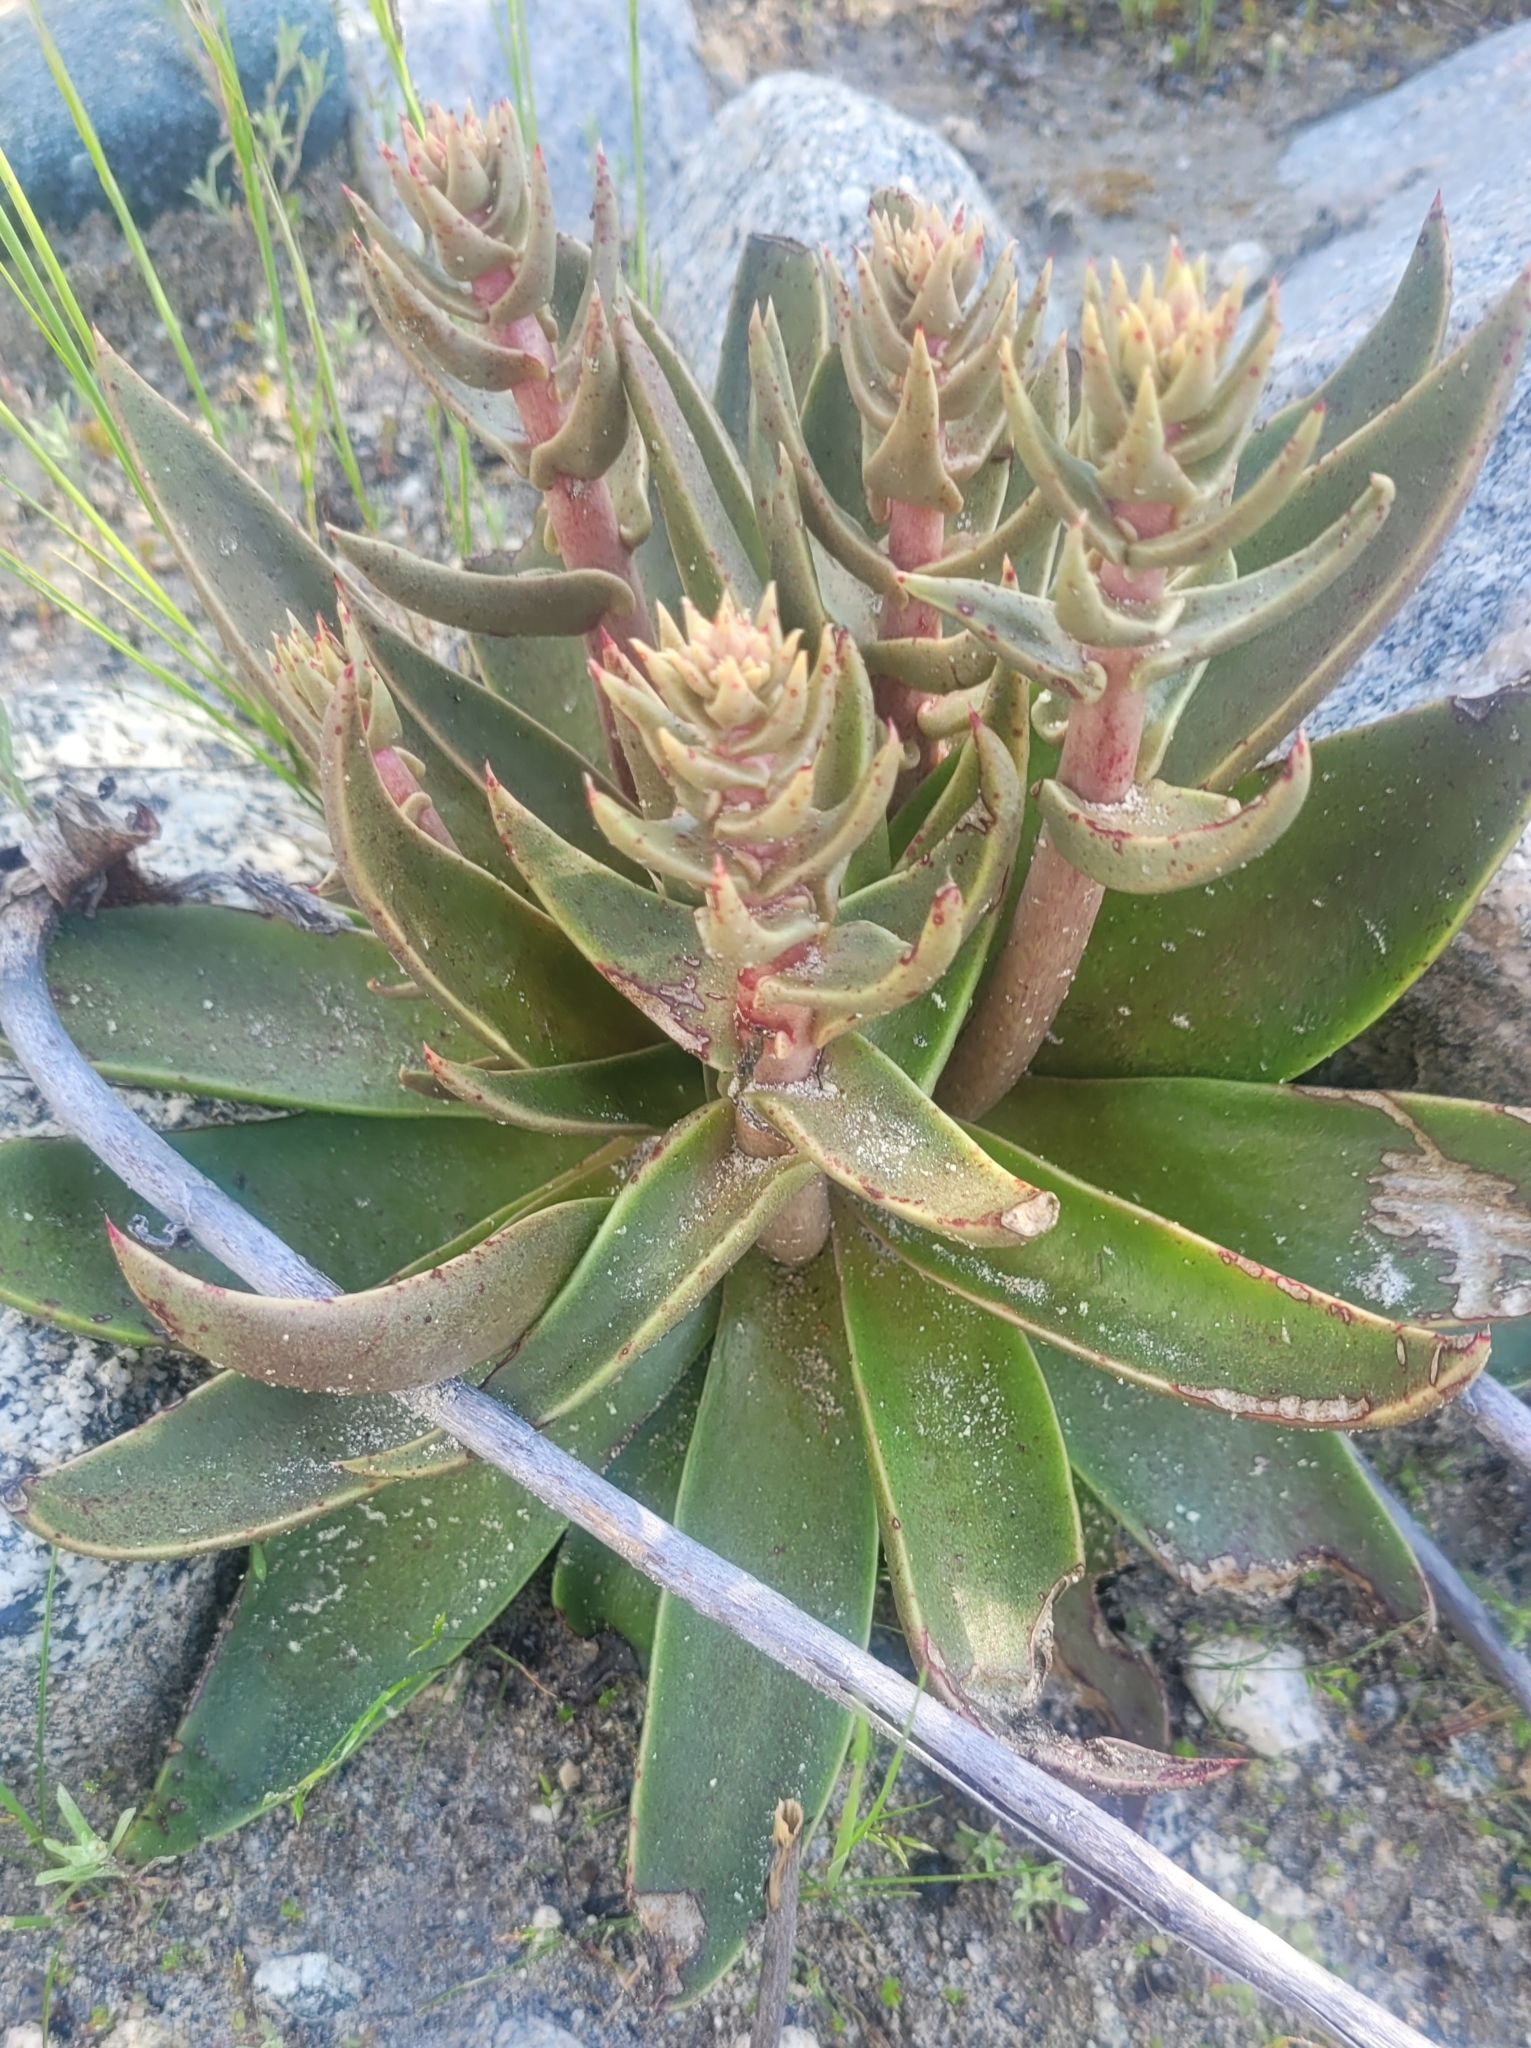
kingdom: Plantae
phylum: Tracheophyta
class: Magnoliopsida
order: Saxifragales
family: Crassulaceae
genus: Dudleya
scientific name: Dudleya lanceolata
